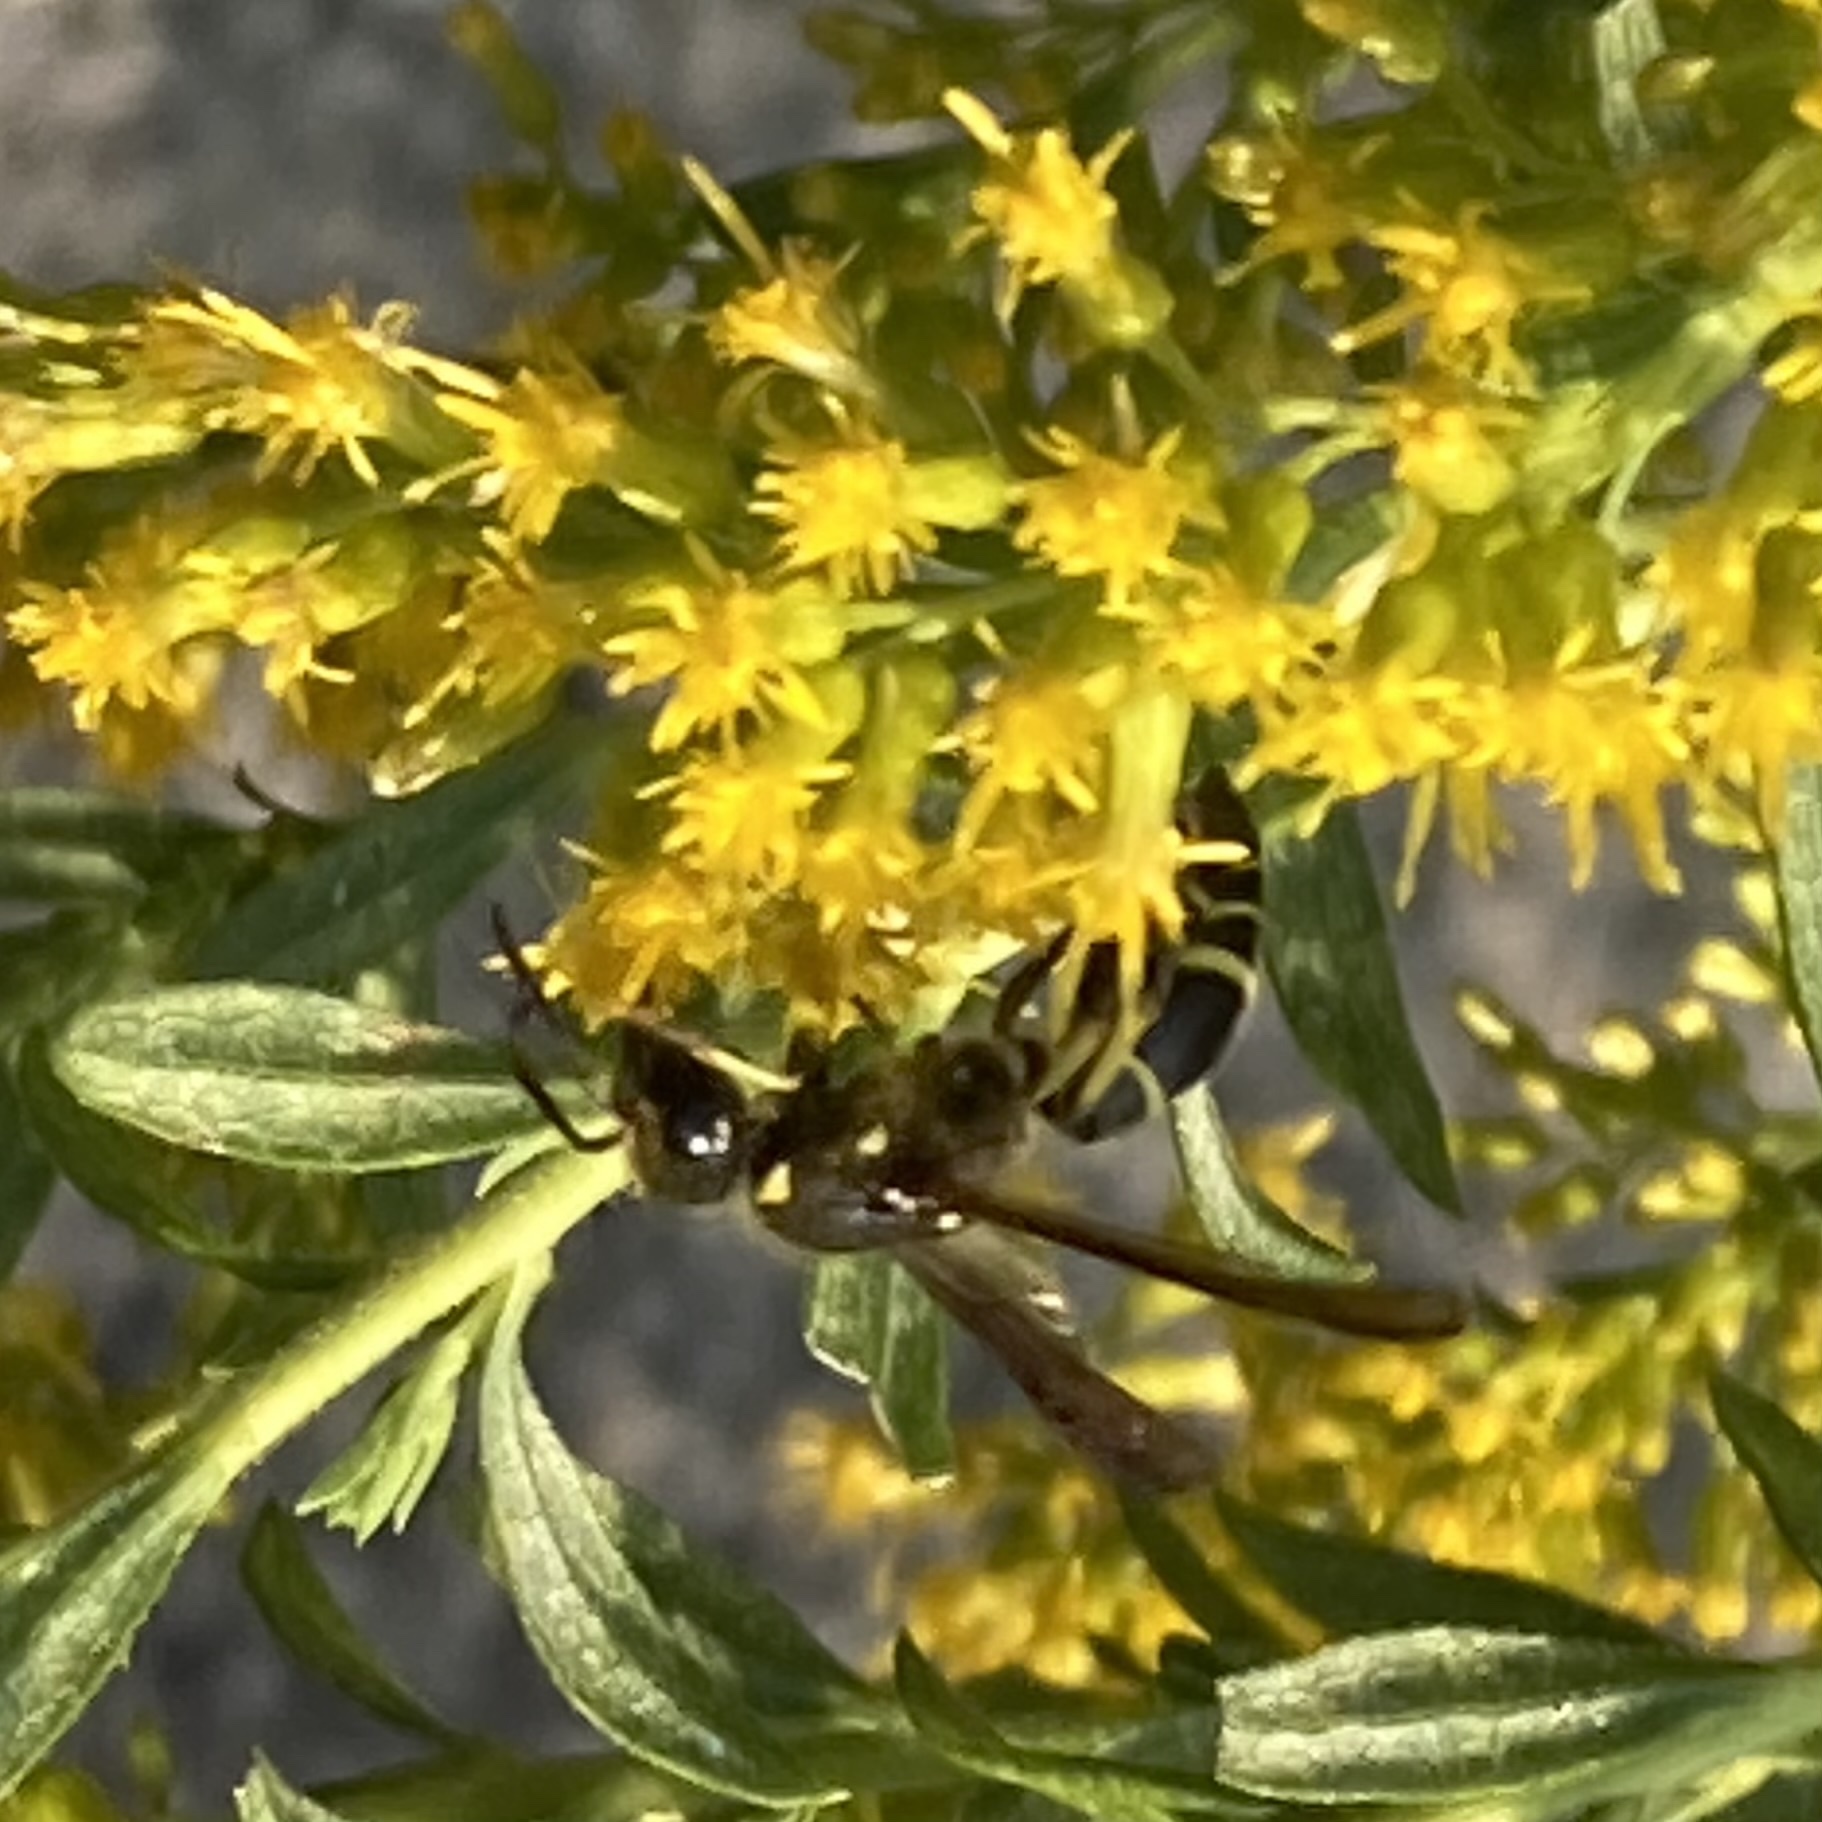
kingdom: Animalia
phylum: Arthropoda
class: Insecta
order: Hymenoptera
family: Eumenidae
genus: Parancistrocerus
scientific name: Parancistrocerus leionotus
